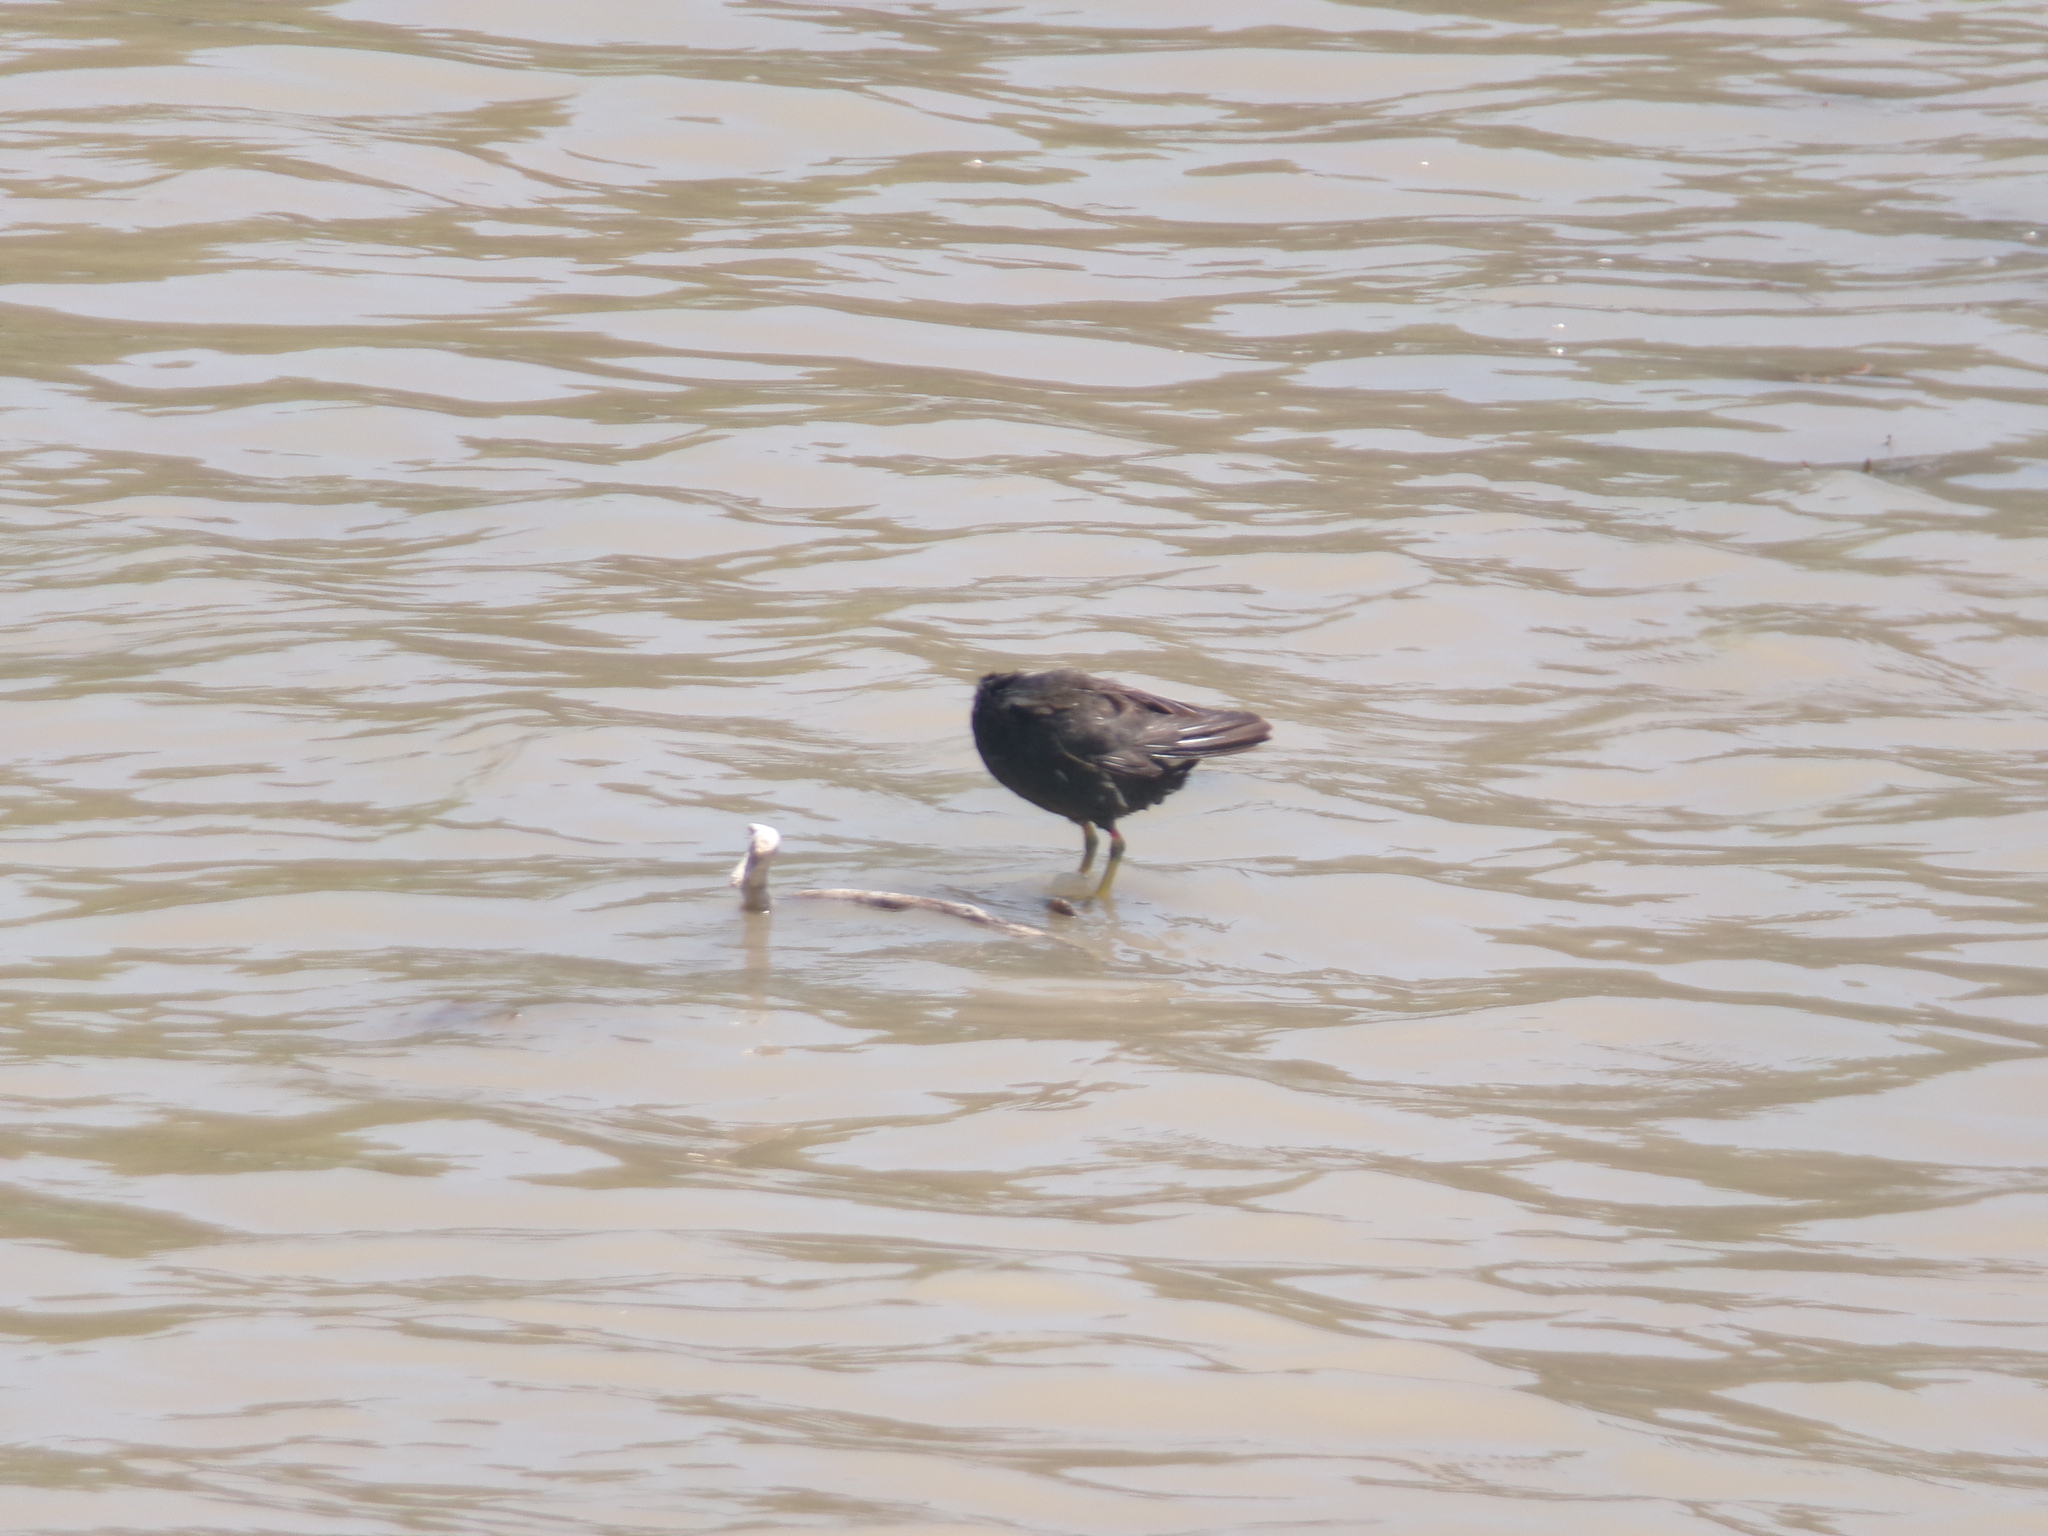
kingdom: Animalia
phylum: Chordata
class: Aves
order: Gruiformes
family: Rallidae
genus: Gallinula
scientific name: Gallinula chloropus
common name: Common moorhen
